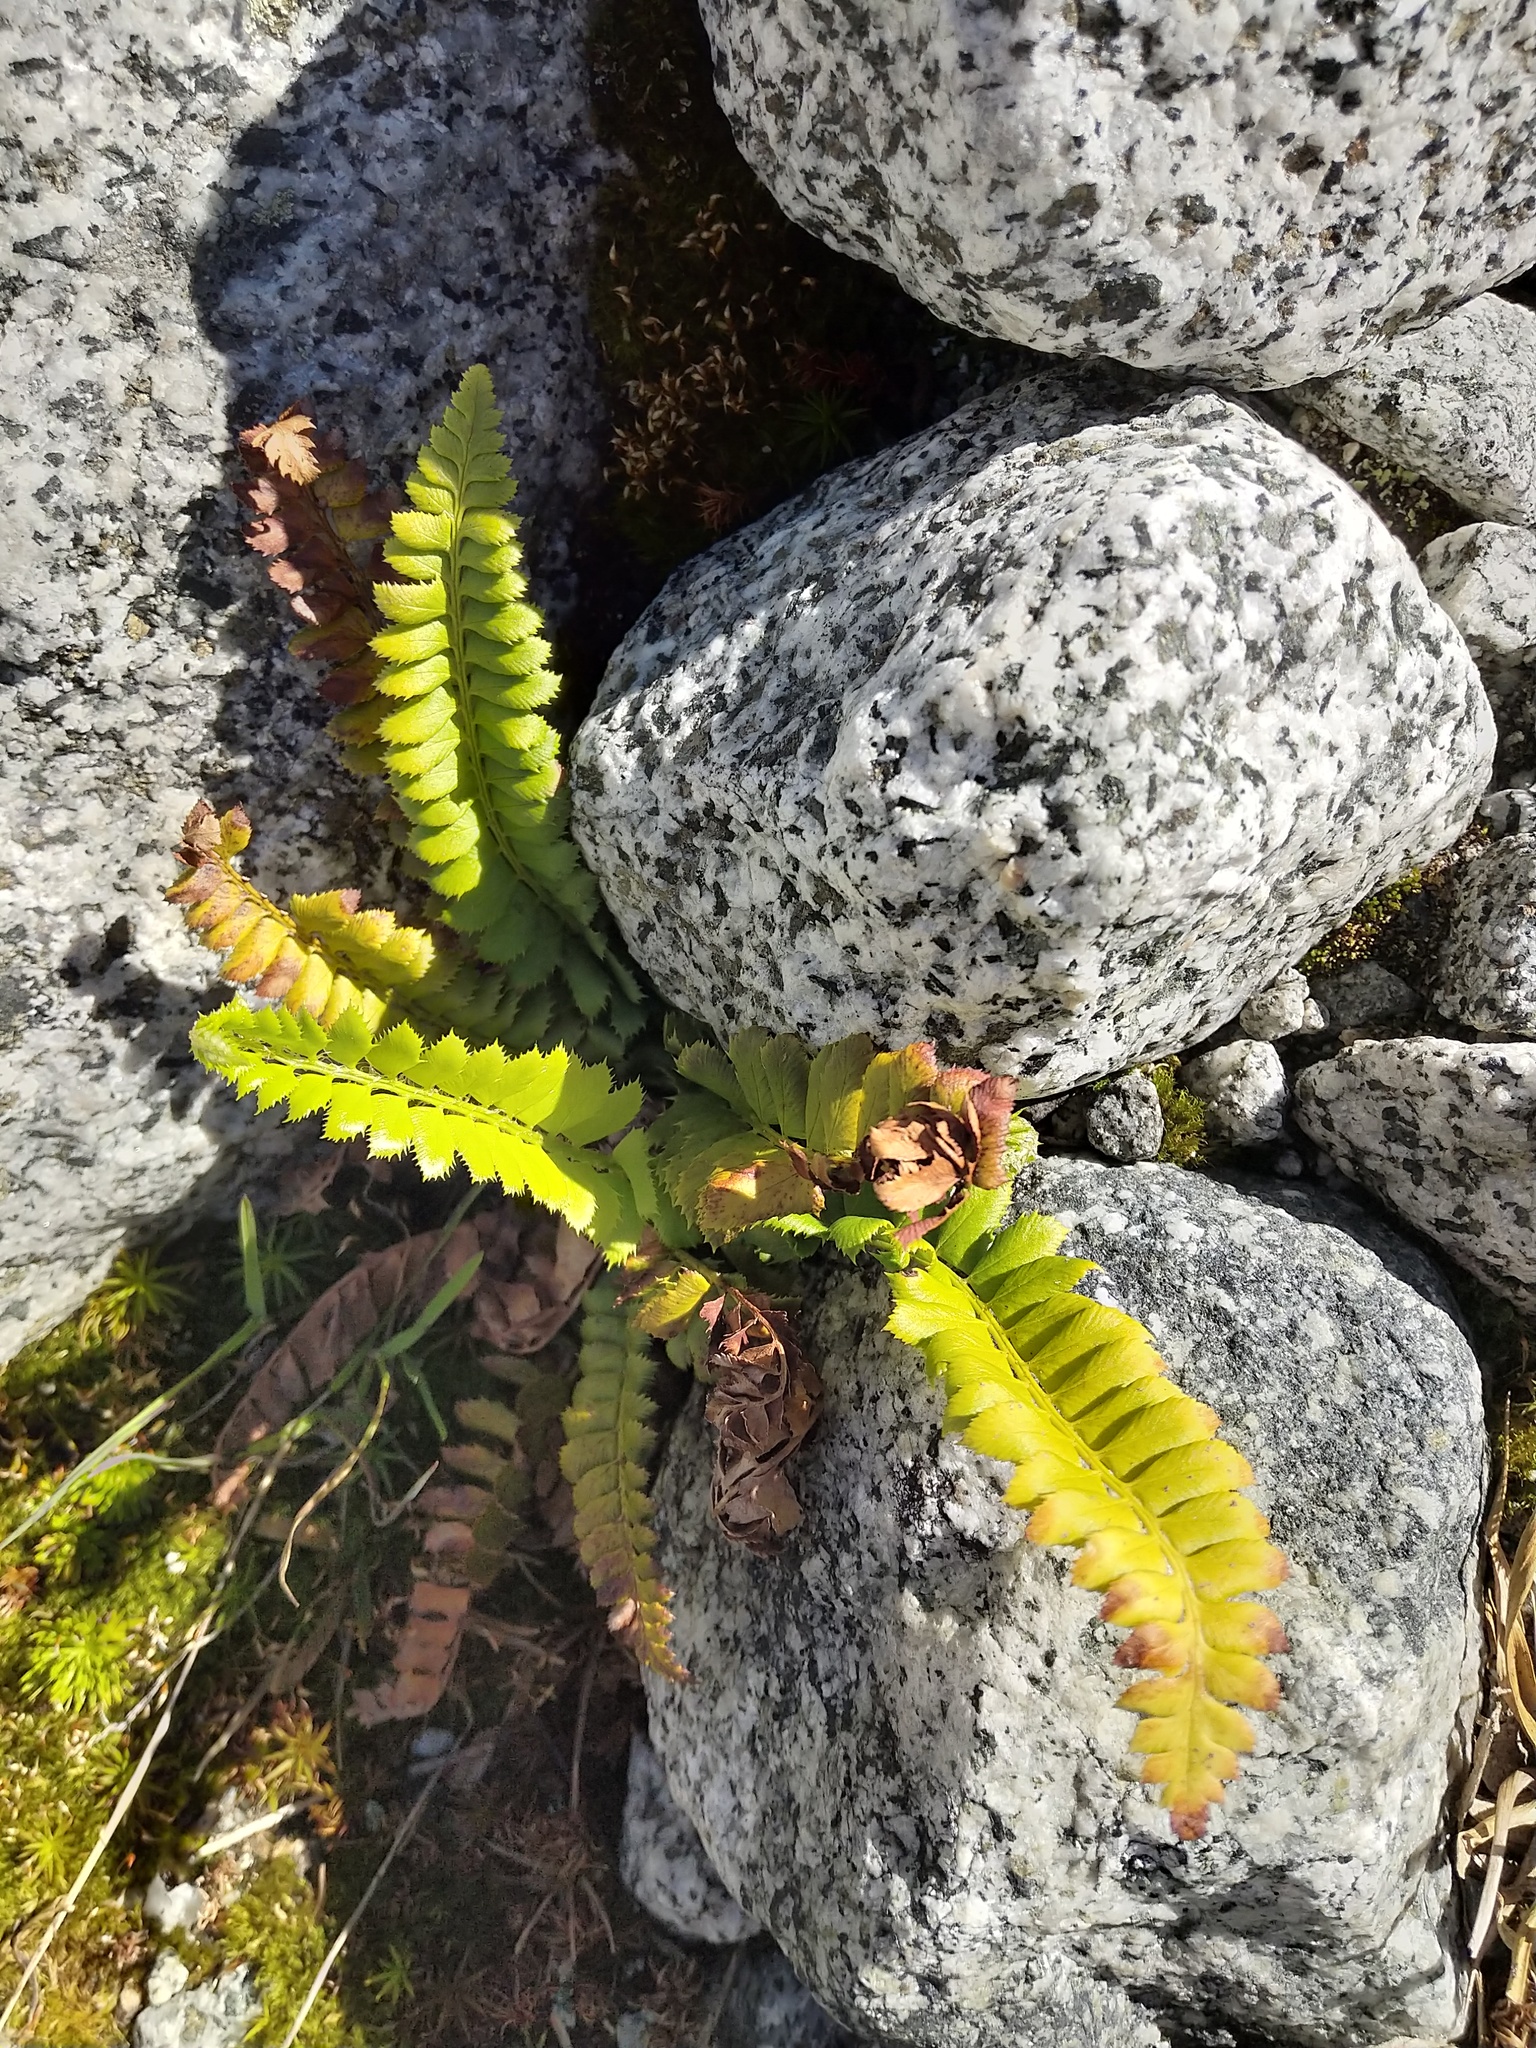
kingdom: Plantae
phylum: Tracheophyta
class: Polypodiopsida
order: Polypodiales
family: Dryopteridaceae
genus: Polystichum
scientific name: Polystichum lonchitis
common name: Holly fern
